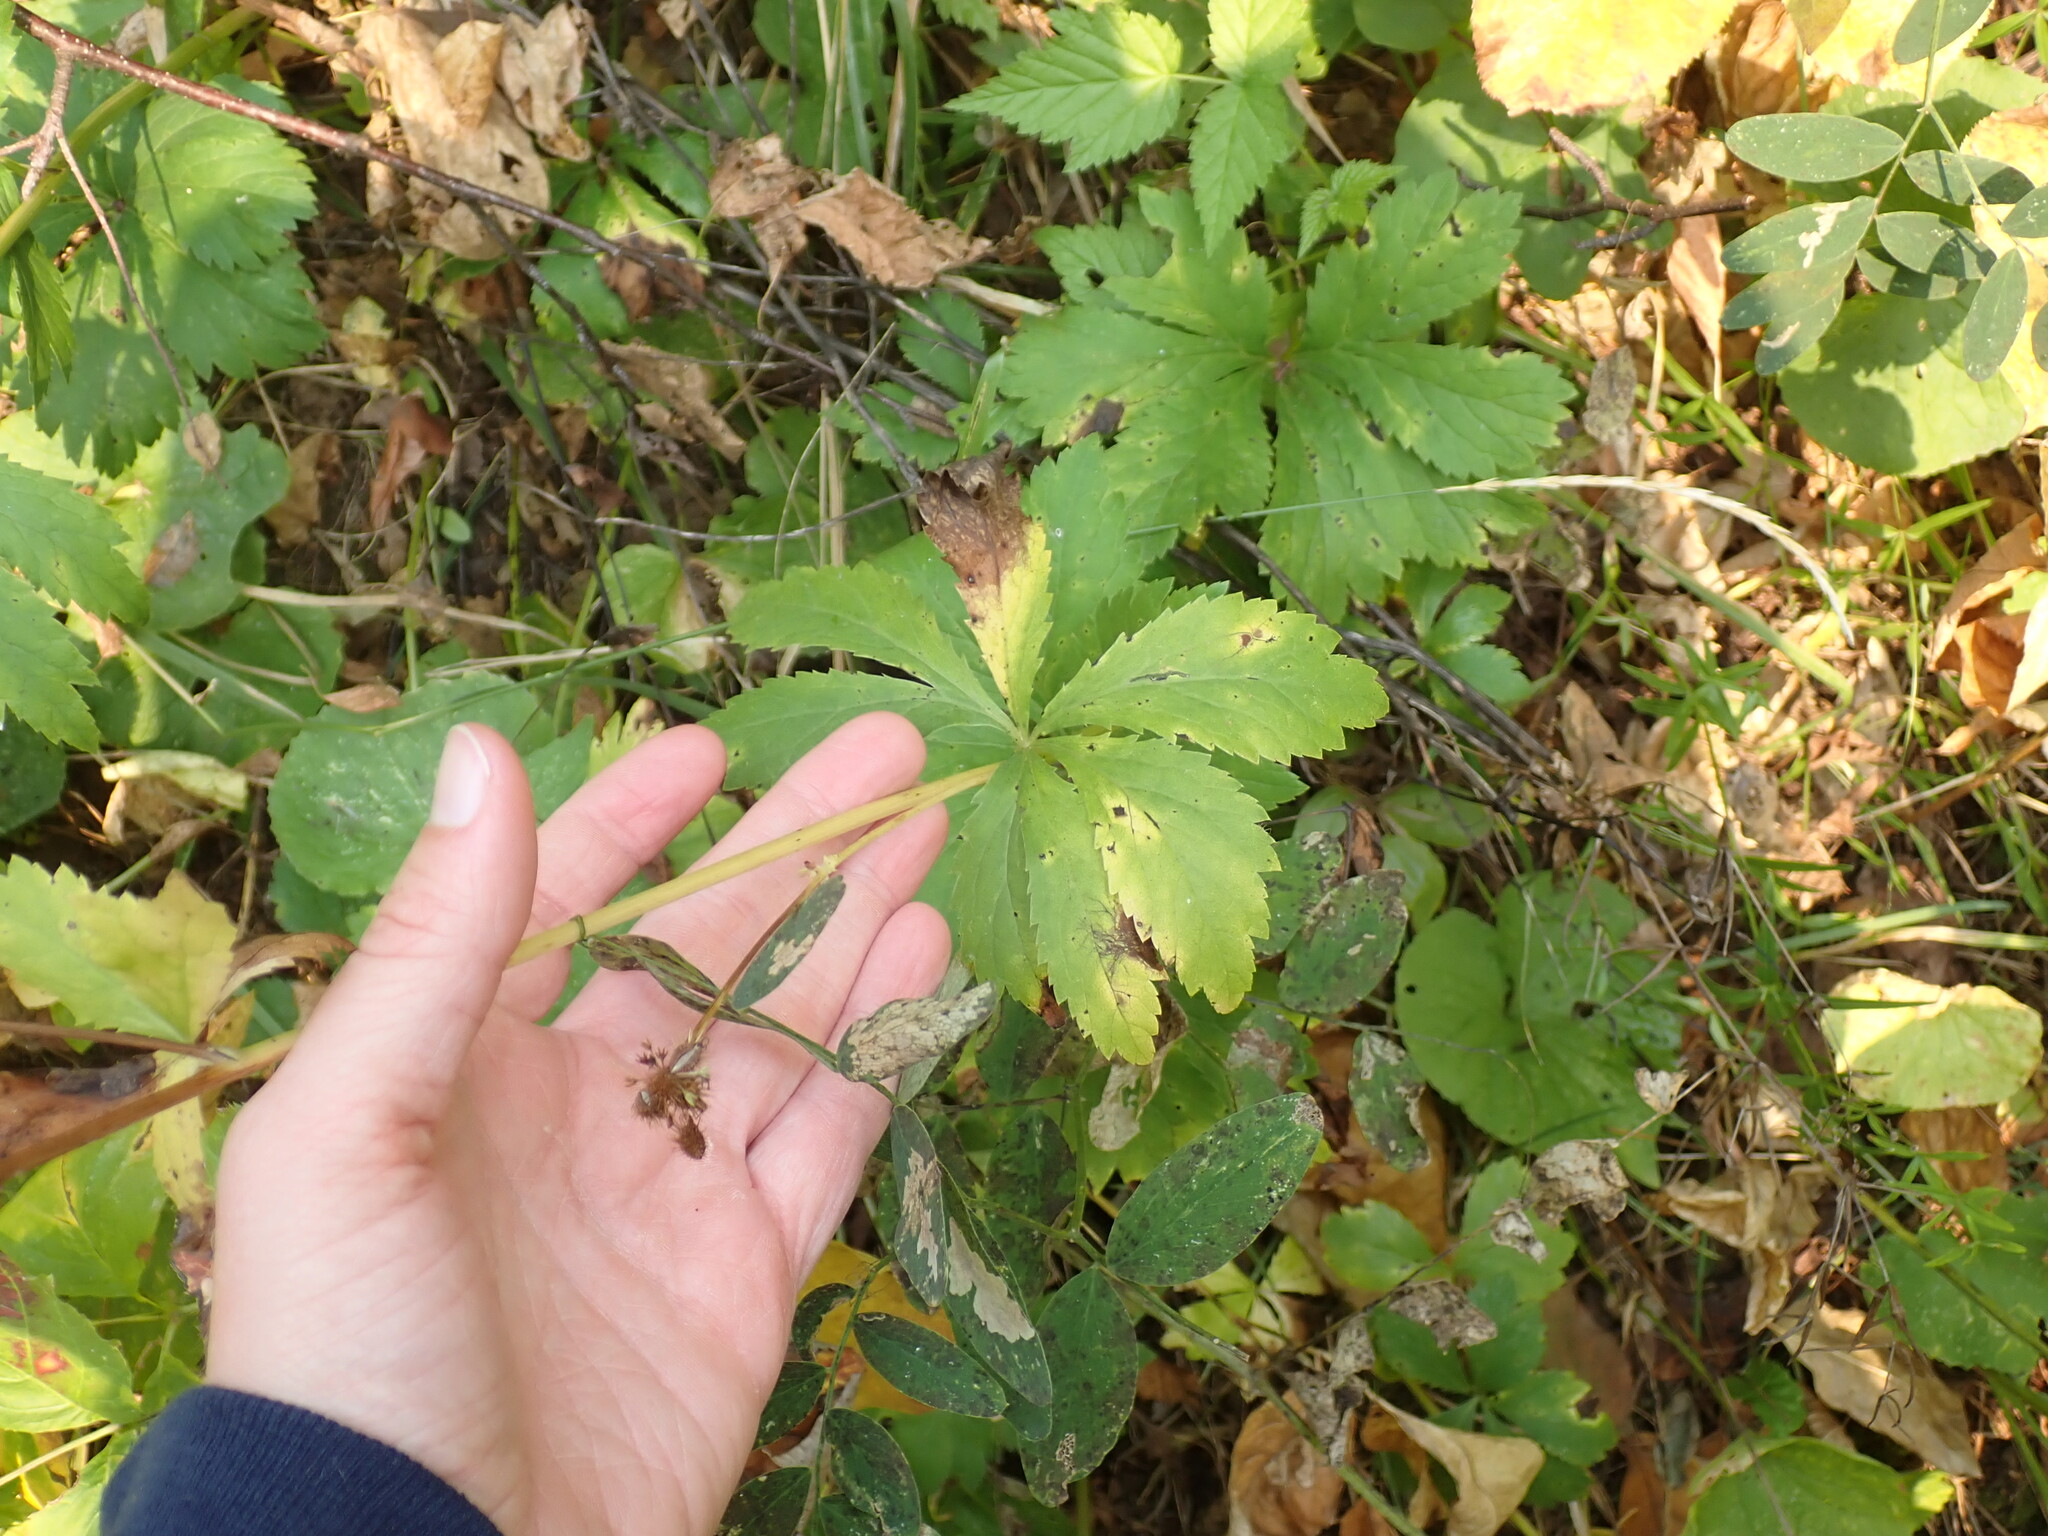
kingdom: Plantae
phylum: Tracheophyta
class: Magnoliopsida
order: Apiales
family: Apiaceae
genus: Sanicula
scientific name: Sanicula marilandica
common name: Black snakeroot
